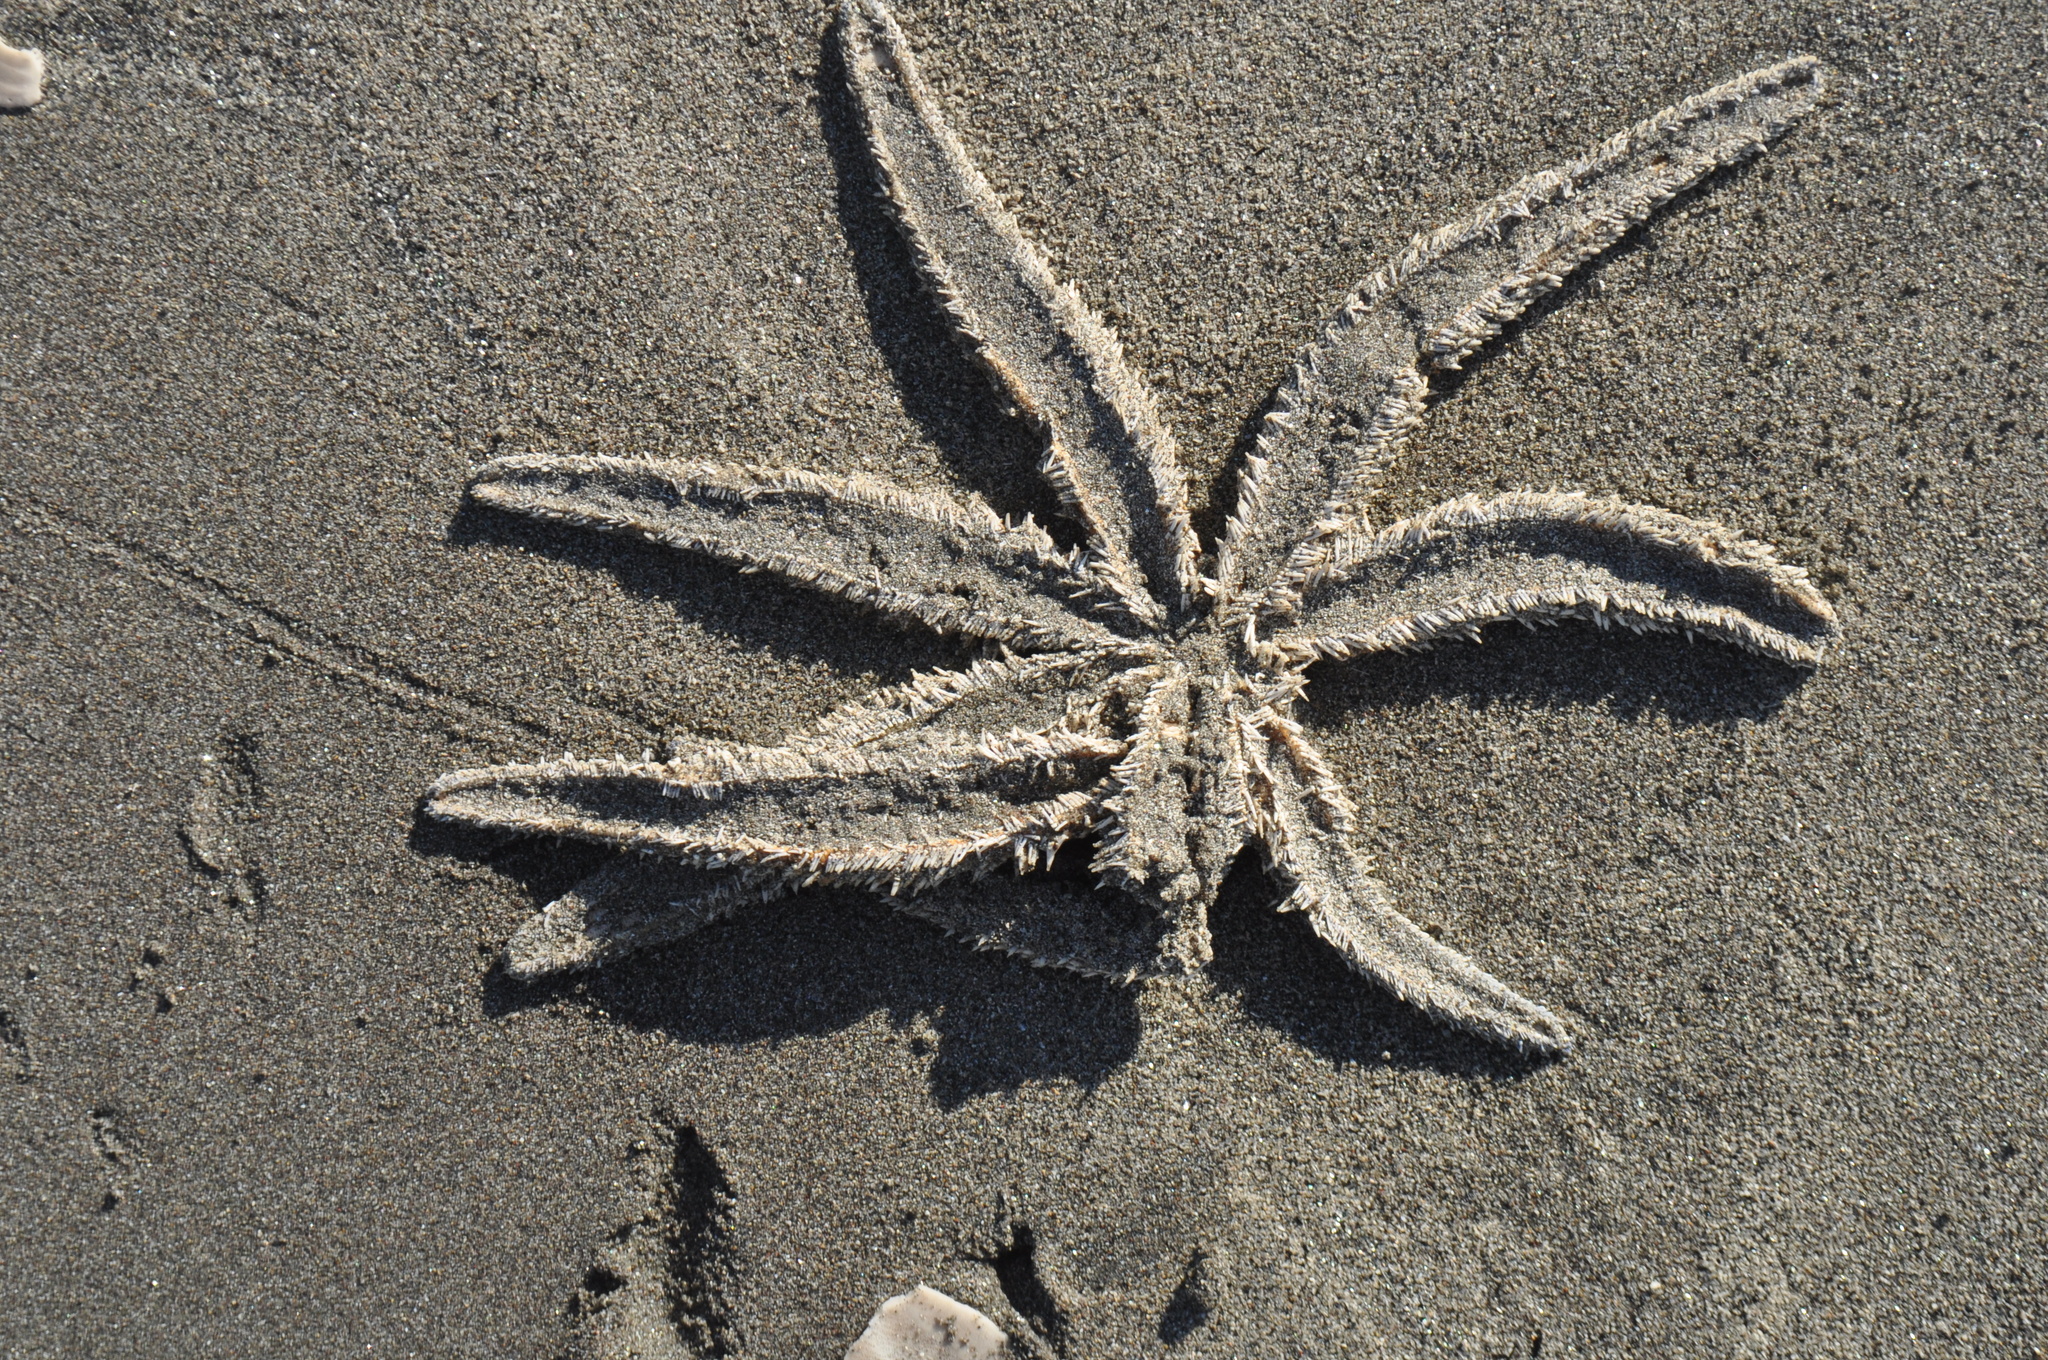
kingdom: Animalia
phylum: Echinodermata
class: Asteroidea
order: Forcipulatida
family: Asteriidae
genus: Coscinasterias
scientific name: Coscinasterias muricata
